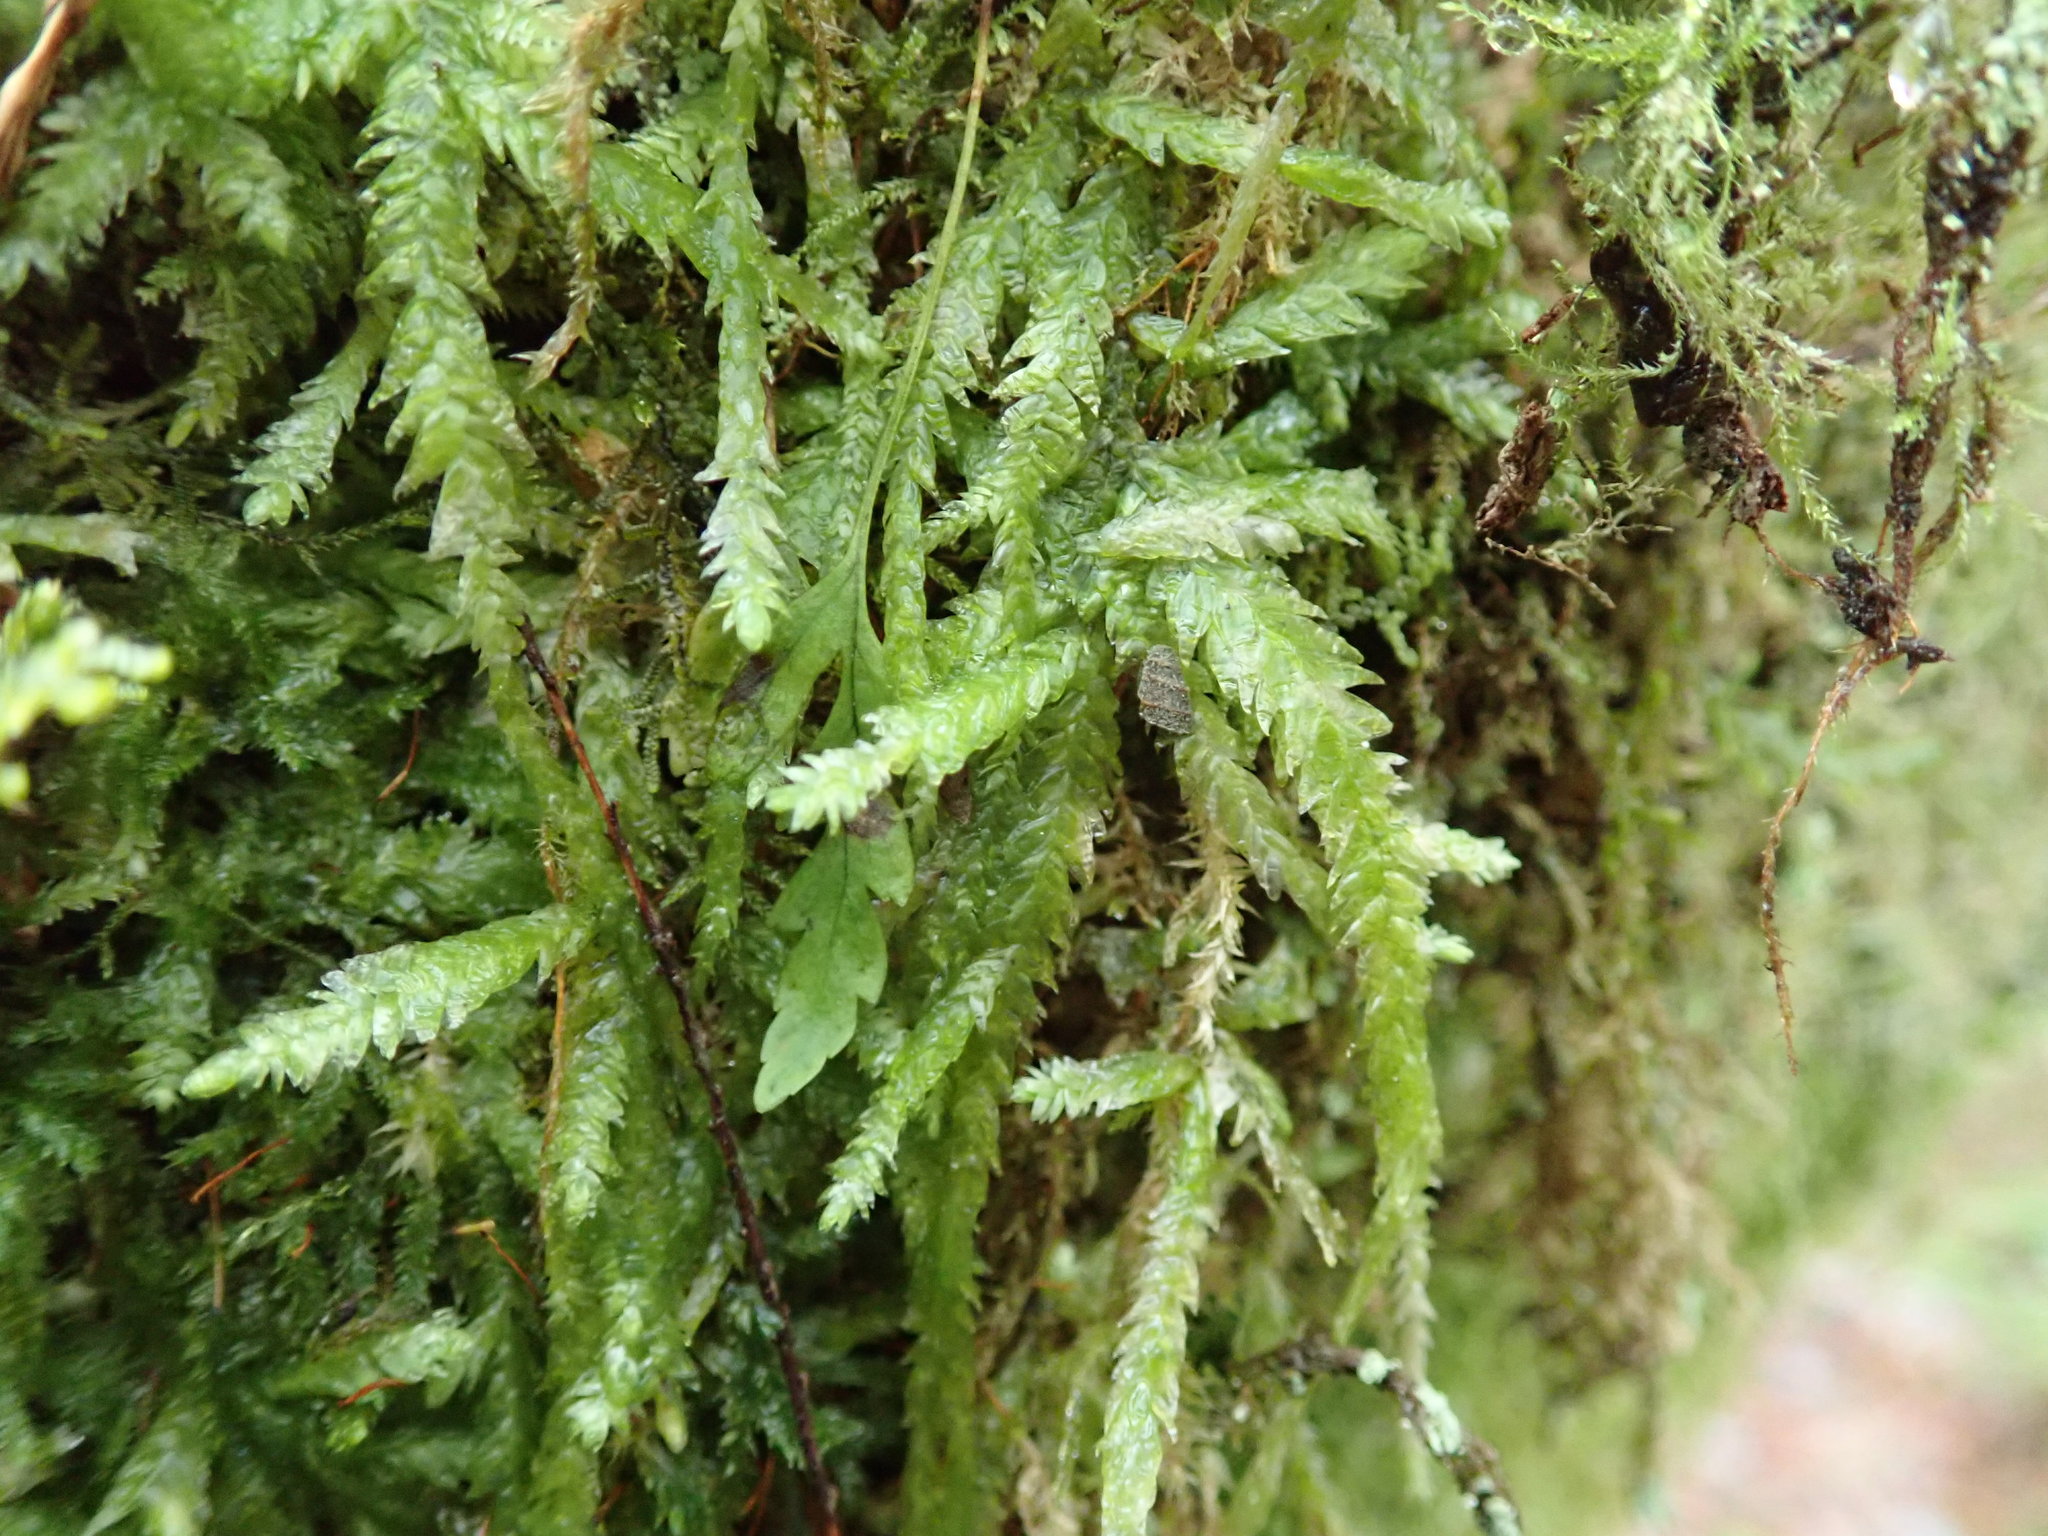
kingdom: Plantae
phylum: Bryophyta
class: Bryopsida
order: Hypnales
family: Plagiotheciaceae
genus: Plagiothecium
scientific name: Plagiothecium undulatum
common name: Waved silk-moss
